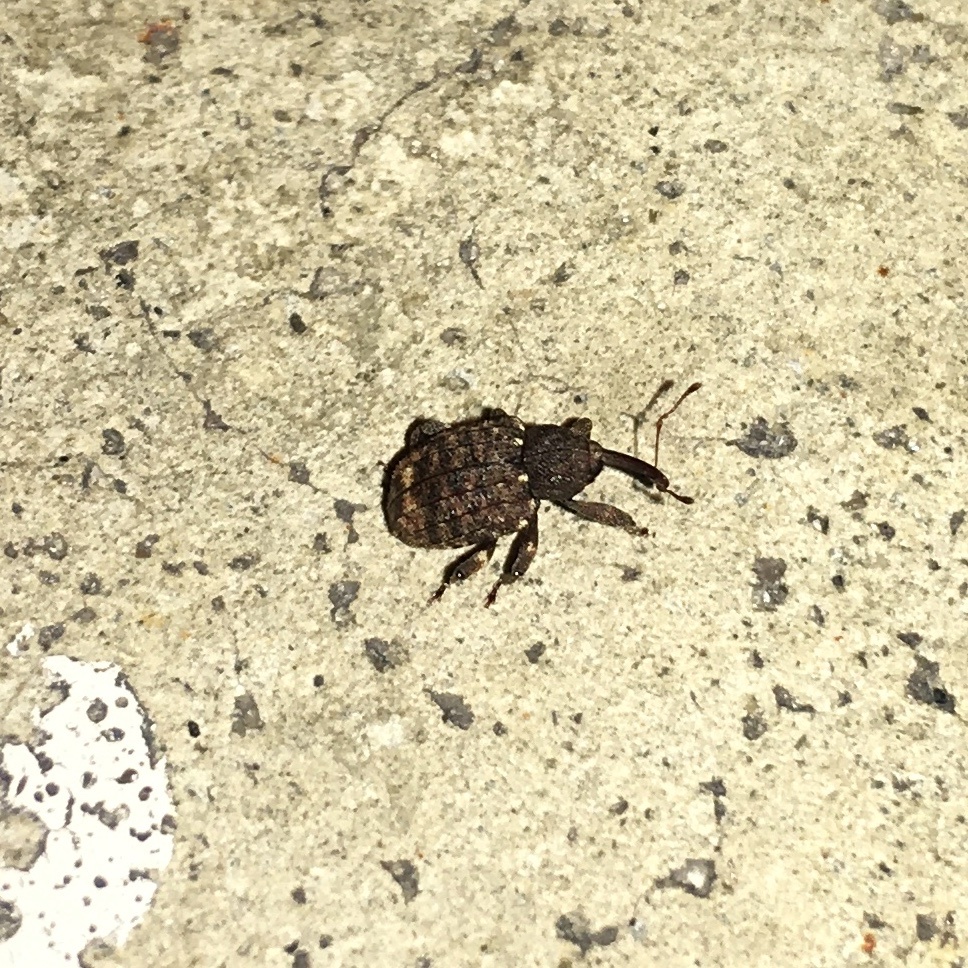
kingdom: Animalia
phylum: Arthropoda
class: Insecta
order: Coleoptera
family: Curculionidae
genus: Conotrachelus
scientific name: Conotrachelus carinifer
